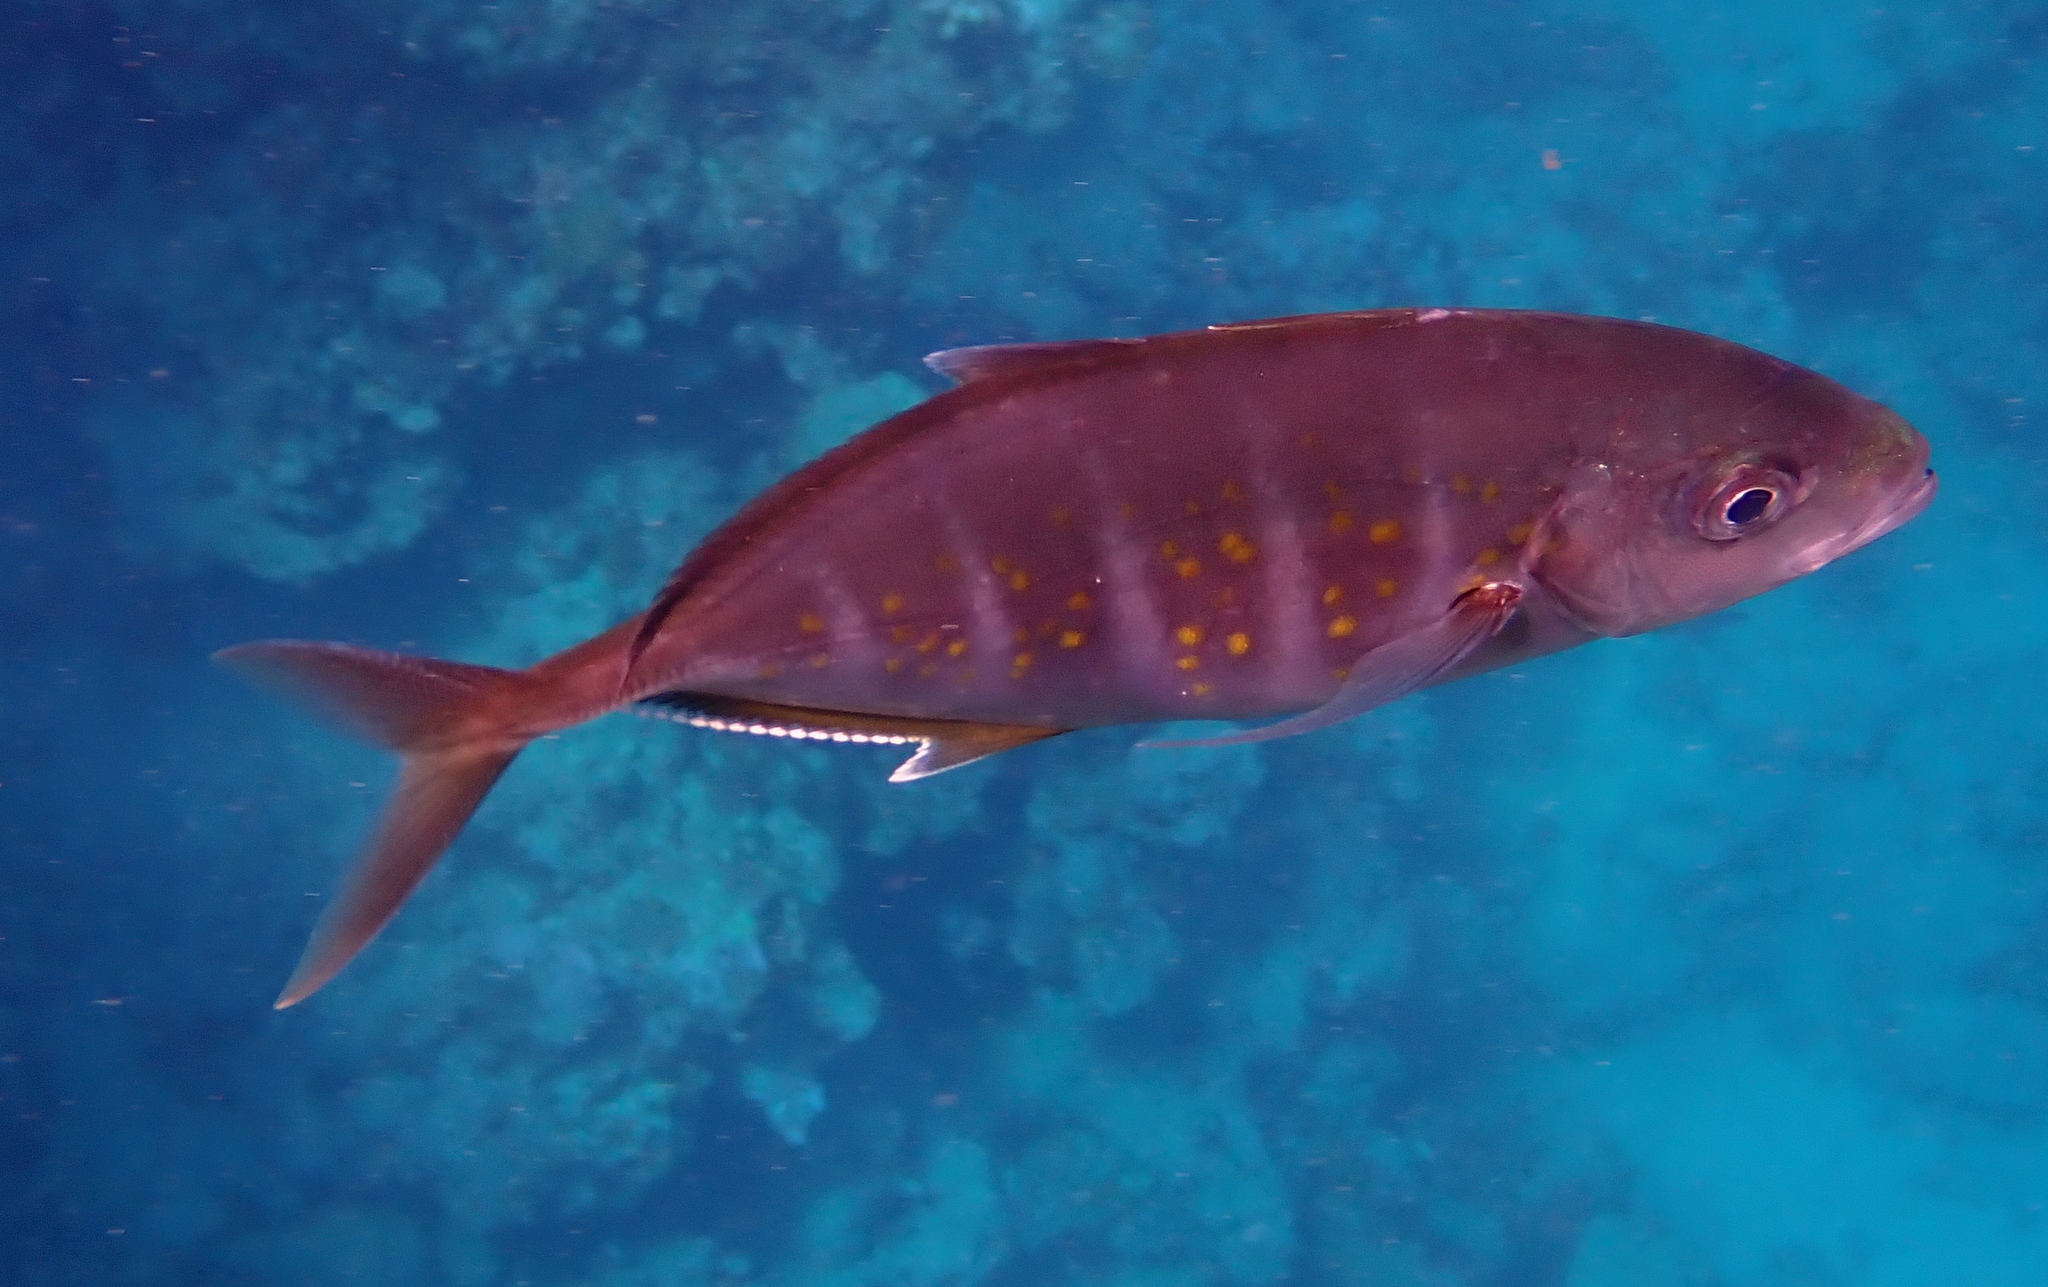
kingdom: Animalia
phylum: Chordata
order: Perciformes
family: Carangidae
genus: Flavocaranx
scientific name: Flavocaranx bajad
